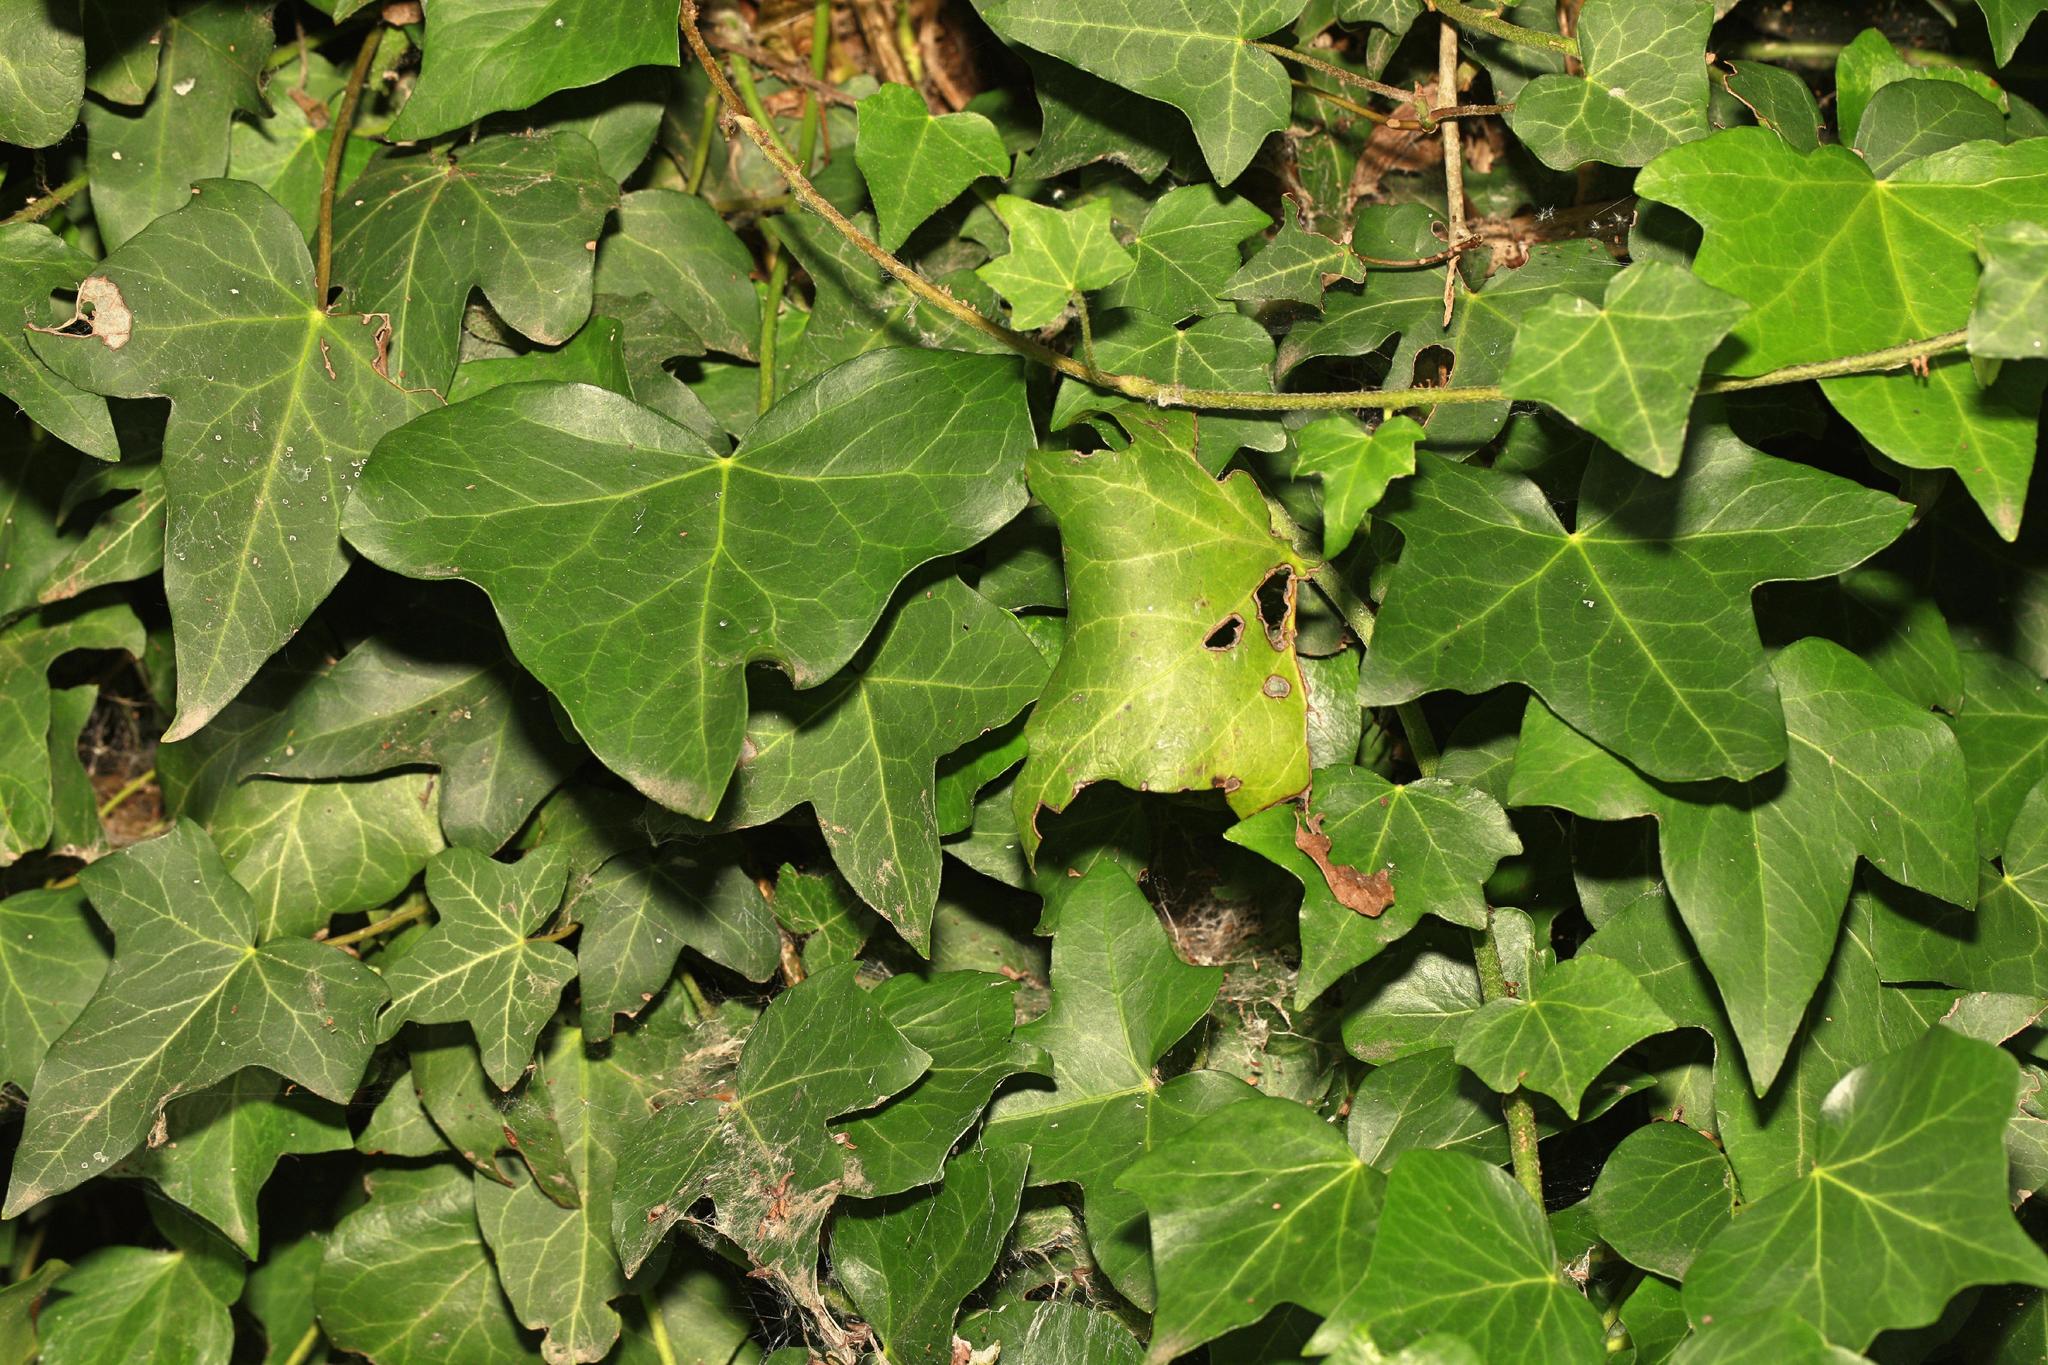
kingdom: Plantae
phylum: Tracheophyta
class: Magnoliopsida
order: Apiales
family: Araliaceae
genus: Hedera
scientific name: Hedera helix
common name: Ivy
